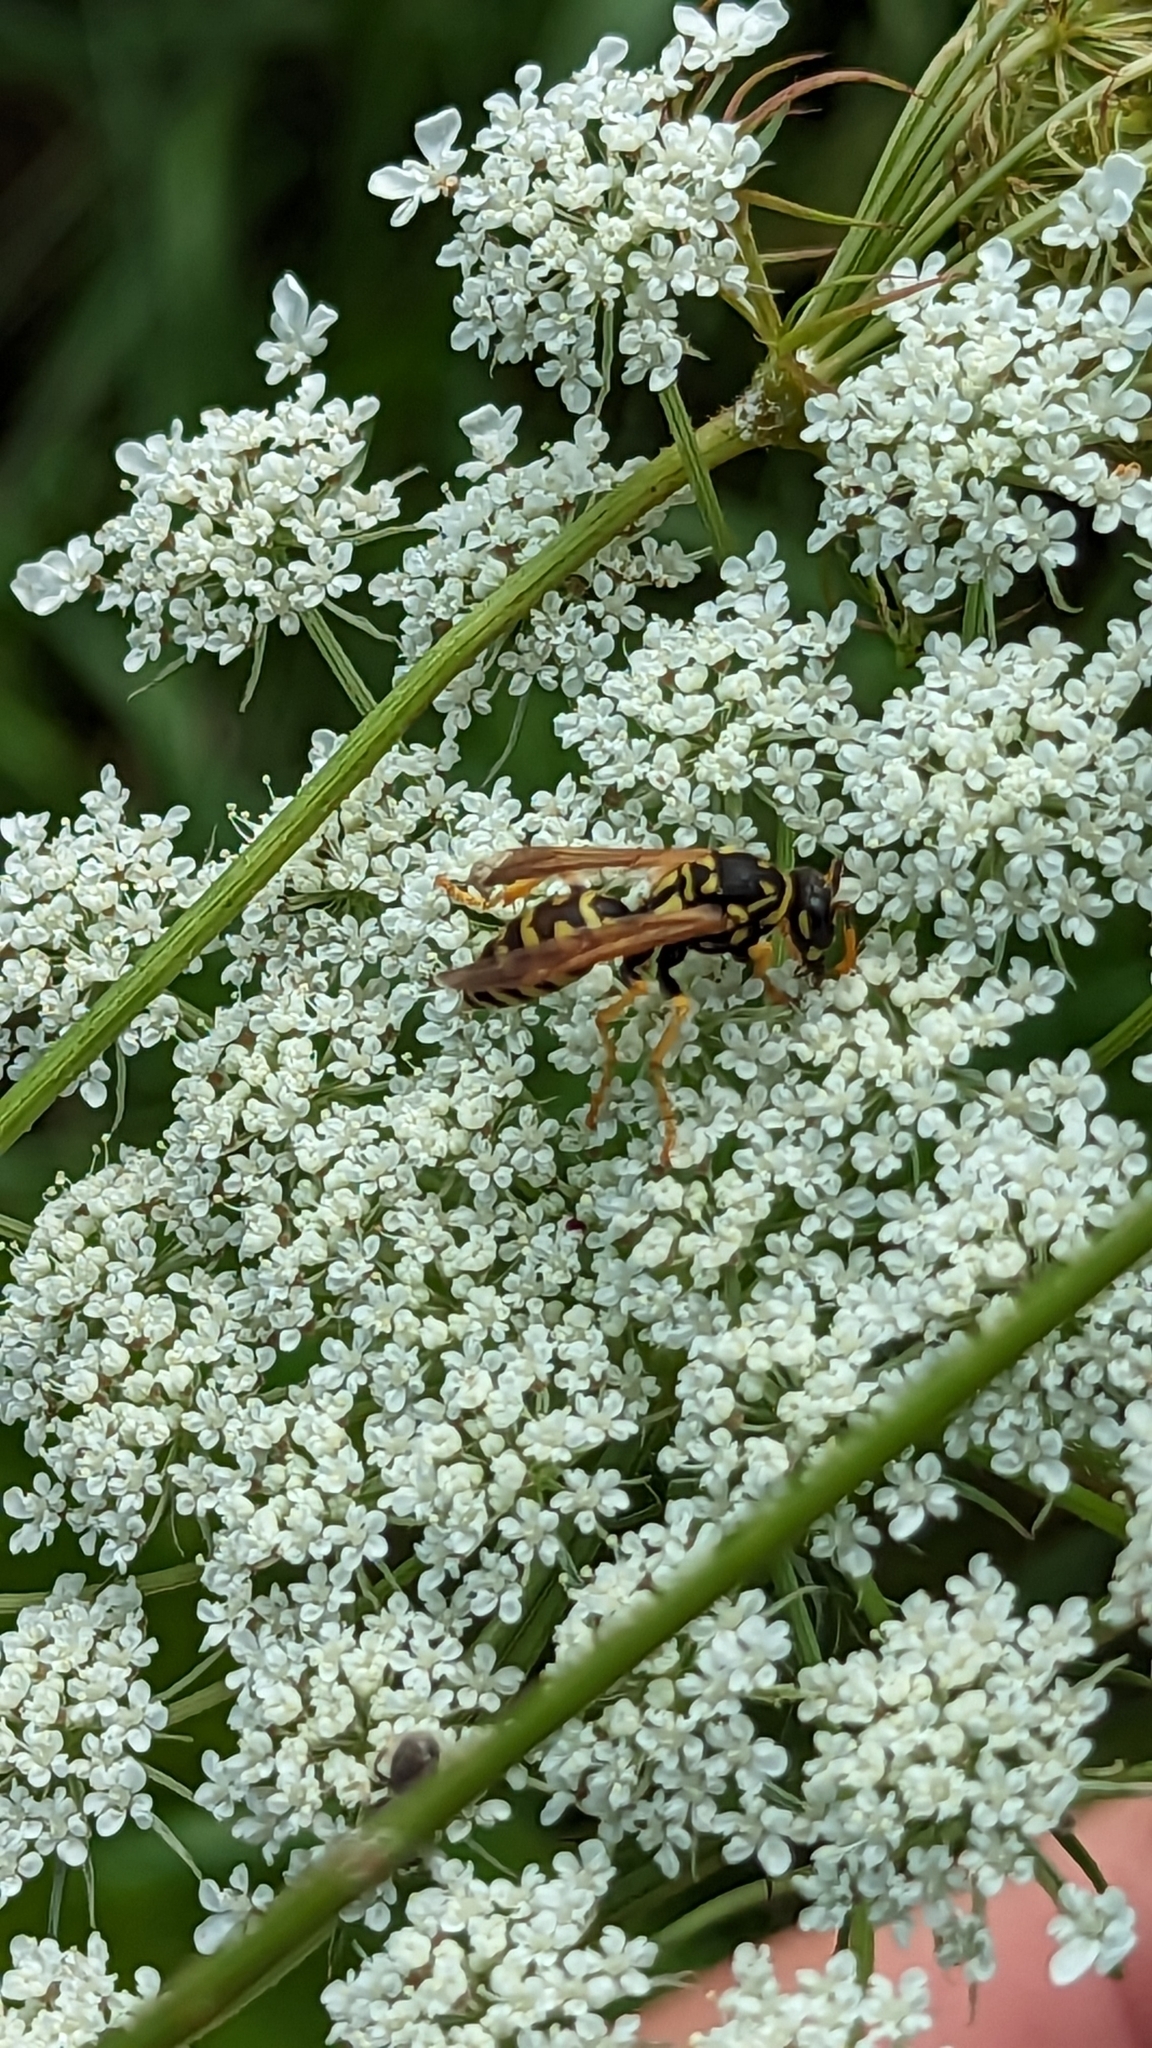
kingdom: Animalia
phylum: Arthropoda
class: Insecta
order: Hymenoptera
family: Eumenidae
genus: Polistes
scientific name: Polistes dominula
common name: Paper wasp
